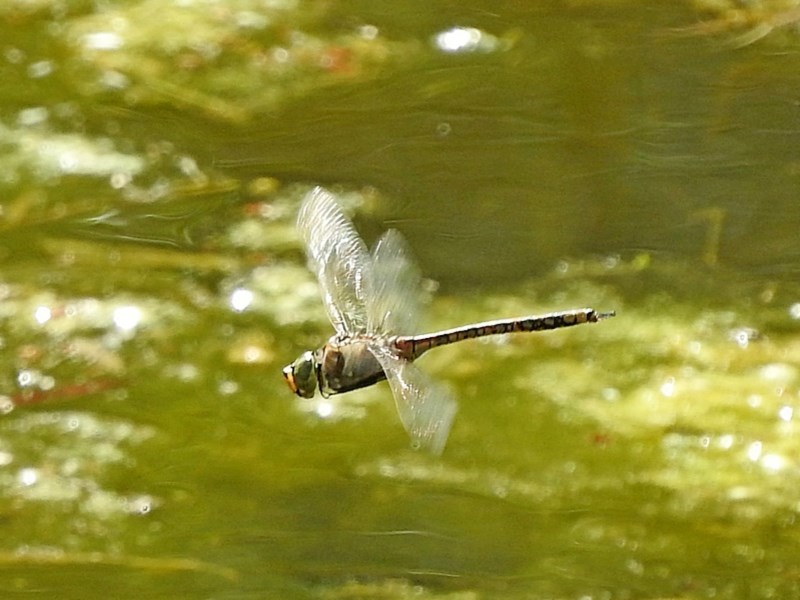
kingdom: Animalia
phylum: Arthropoda
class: Insecta
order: Odonata
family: Aeshnidae
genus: Anax
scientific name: Anax papuensis
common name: Australian emperor
